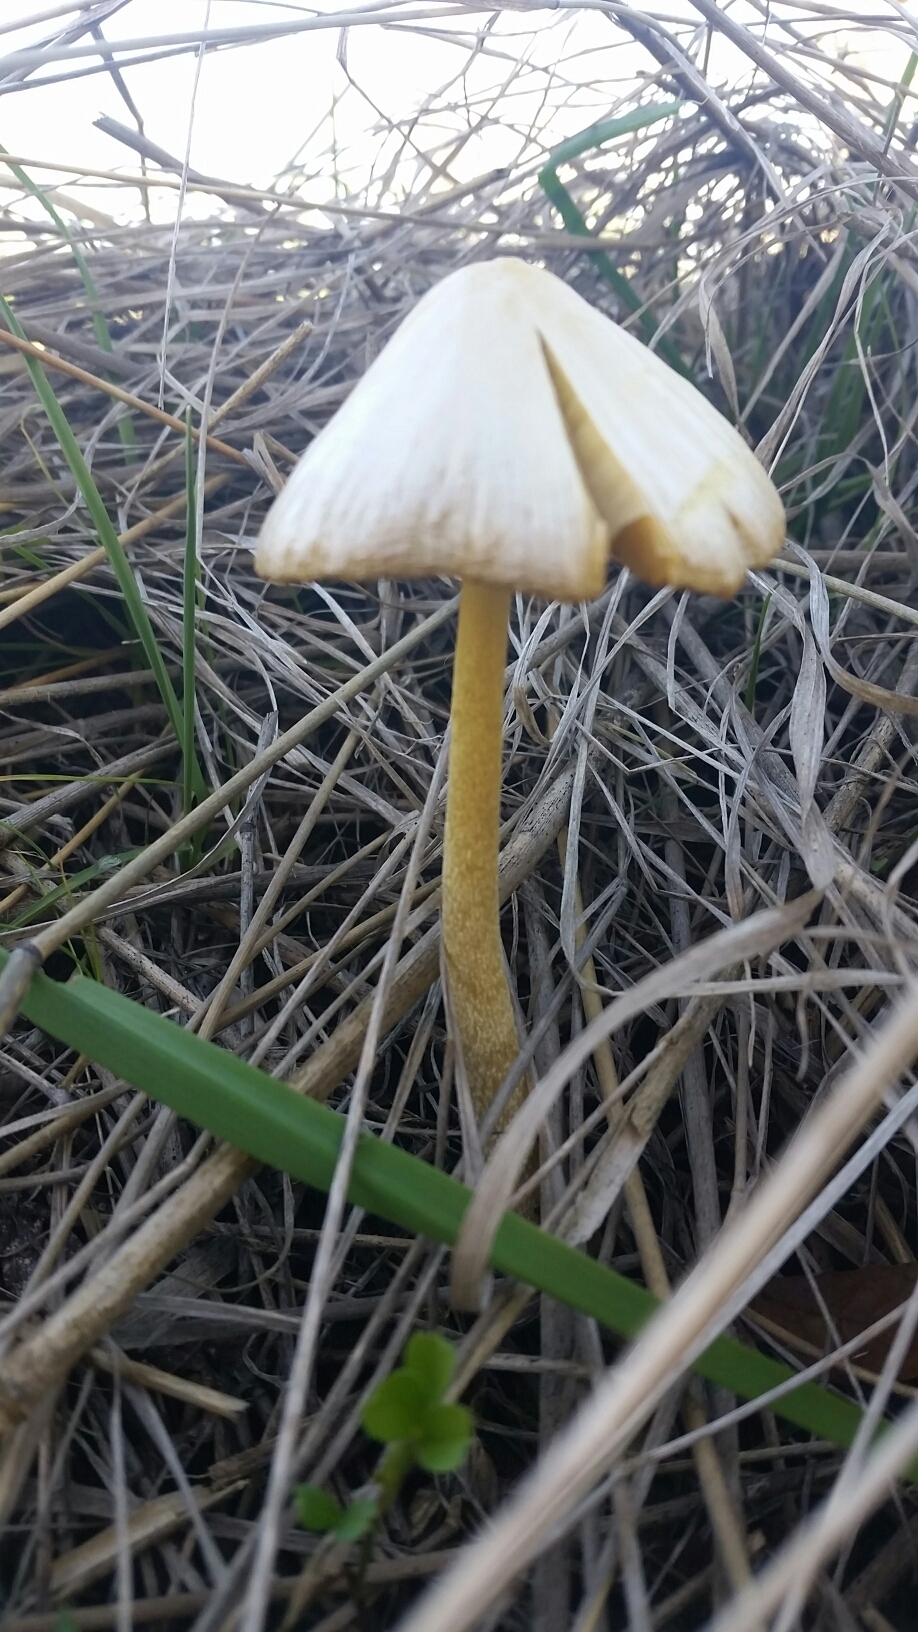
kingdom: Fungi
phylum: Basidiomycota
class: Agaricomycetes
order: Agaricales
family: Bolbitiaceae
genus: Bolbitius
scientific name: Bolbitius titubans
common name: Yellow fieldcap
